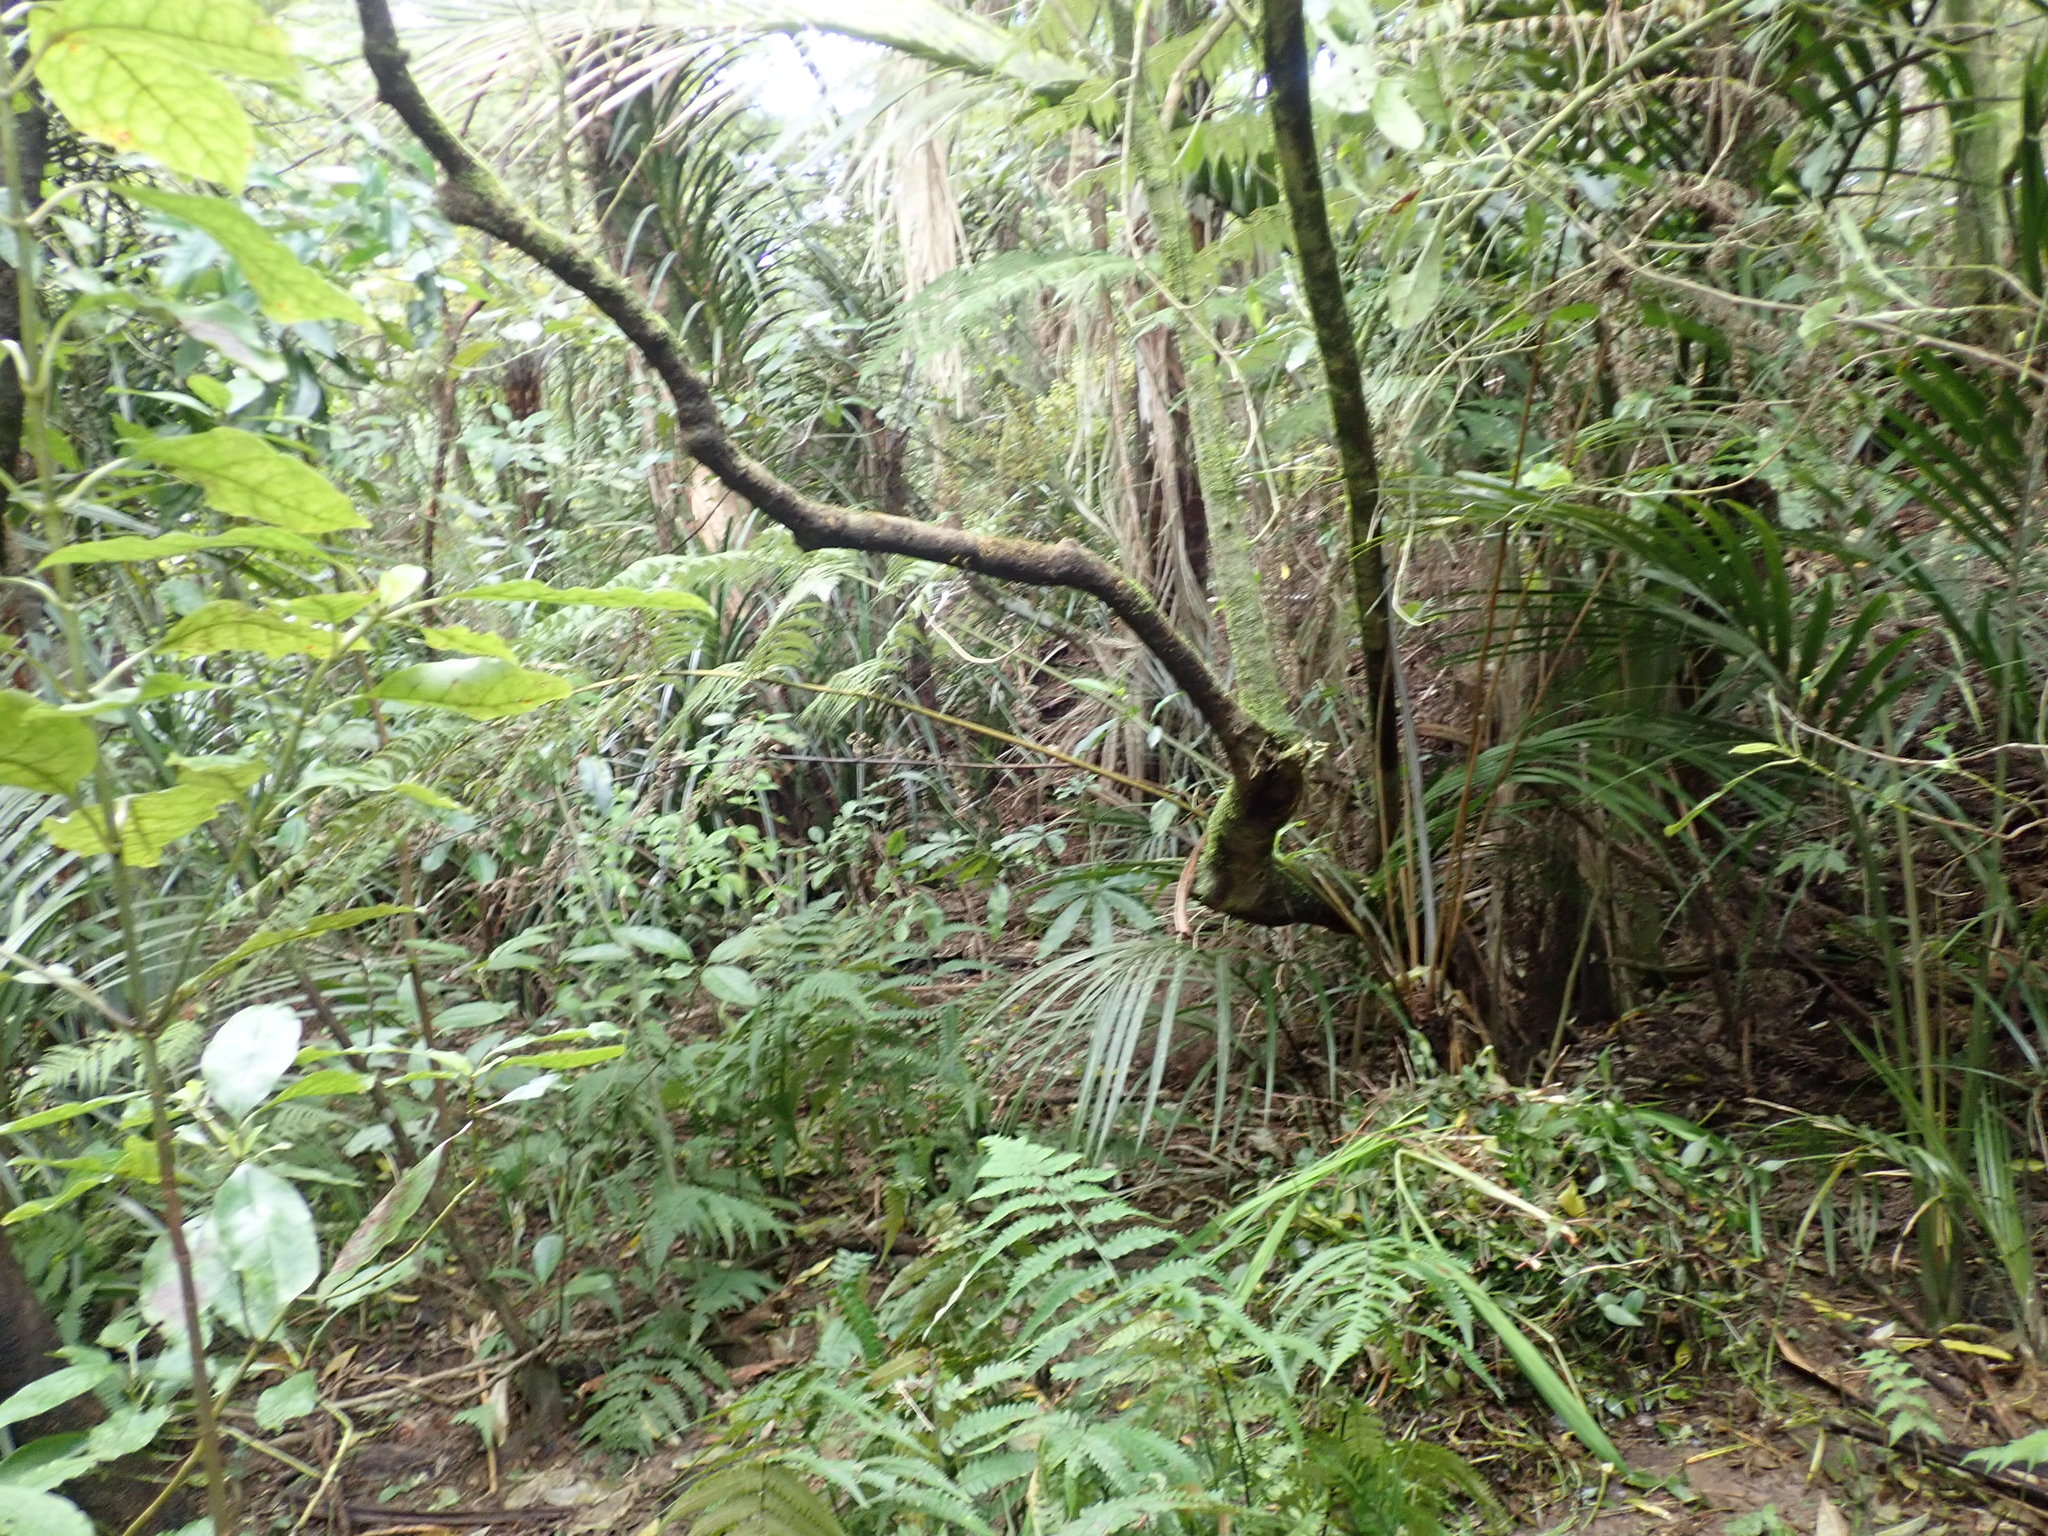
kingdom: Plantae
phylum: Tracheophyta
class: Liliopsida
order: Commelinales
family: Commelinaceae
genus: Tradescantia
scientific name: Tradescantia fluminensis
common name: Wandering-jew
